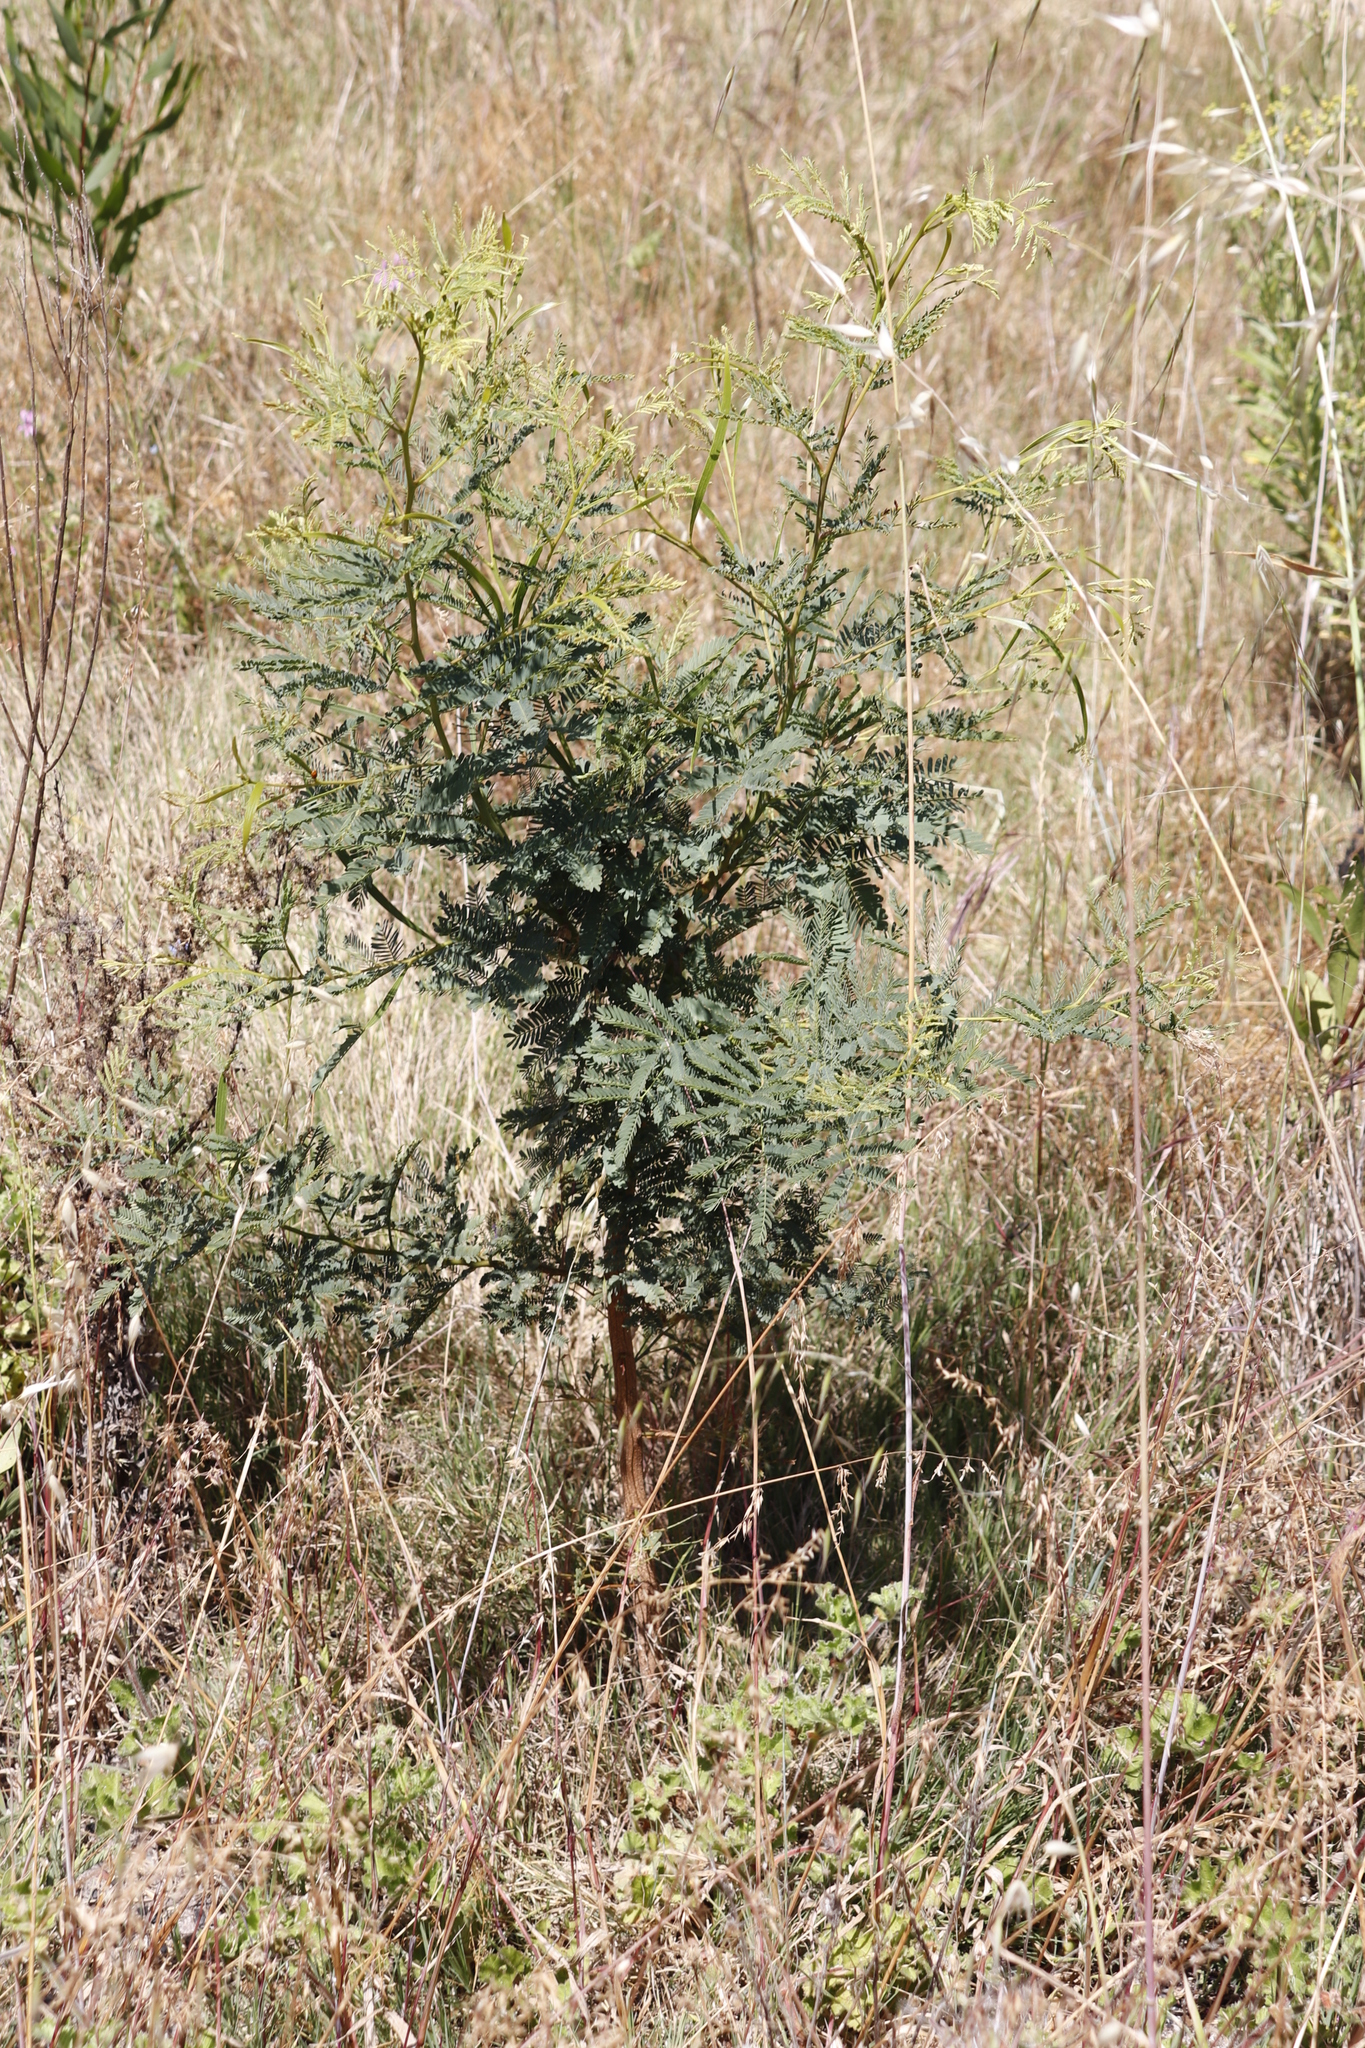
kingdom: Plantae
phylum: Tracheophyta
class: Magnoliopsida
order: Fabales
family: Fabaceae
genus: Acacia
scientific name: Acacia implexa
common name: Black wattle
